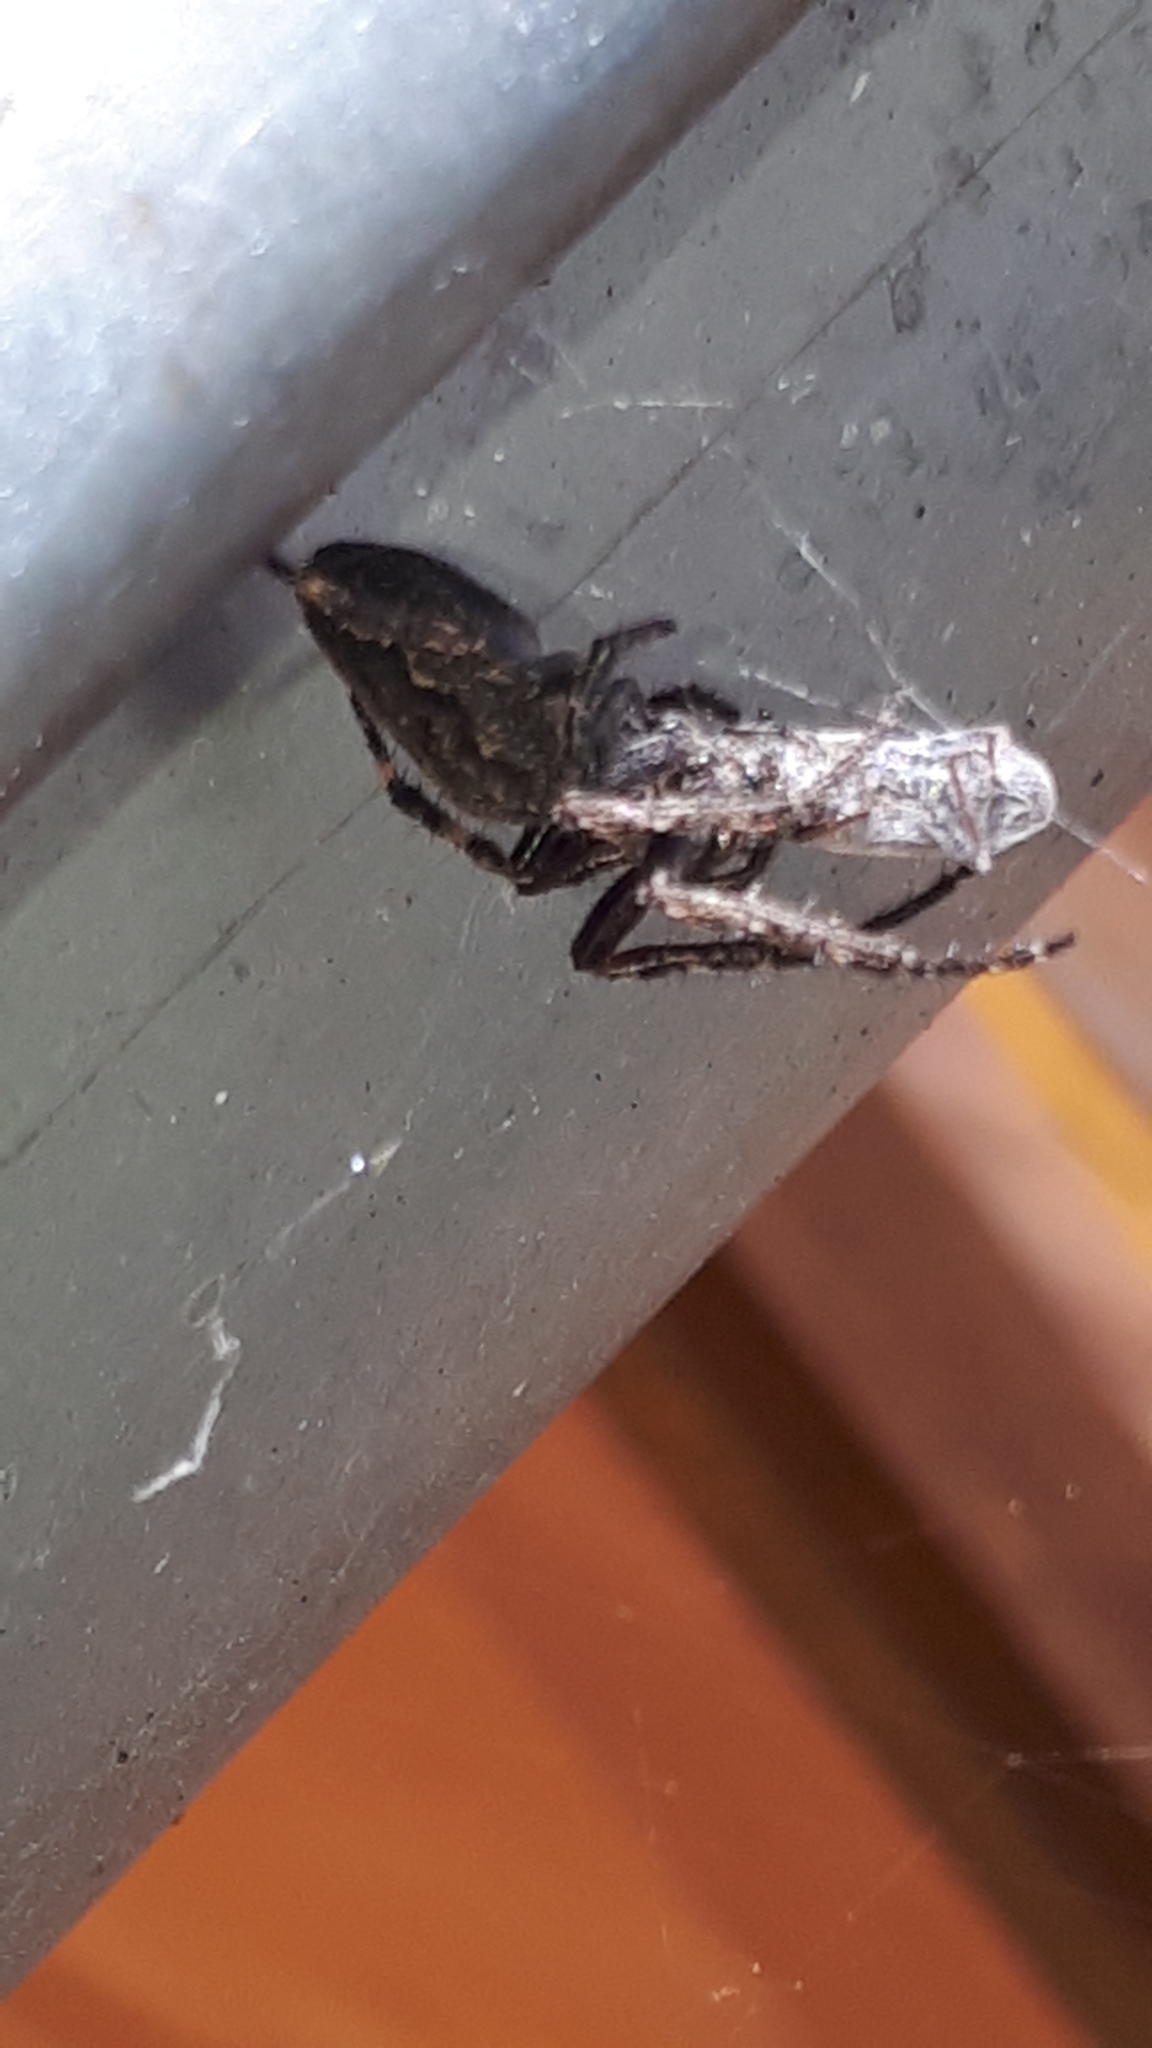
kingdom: Animalia
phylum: Arthropoda
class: Arachnida
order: Araneae
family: Araneidae
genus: Nuctenea
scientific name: Nuctenea umbratica
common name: Toad spider
